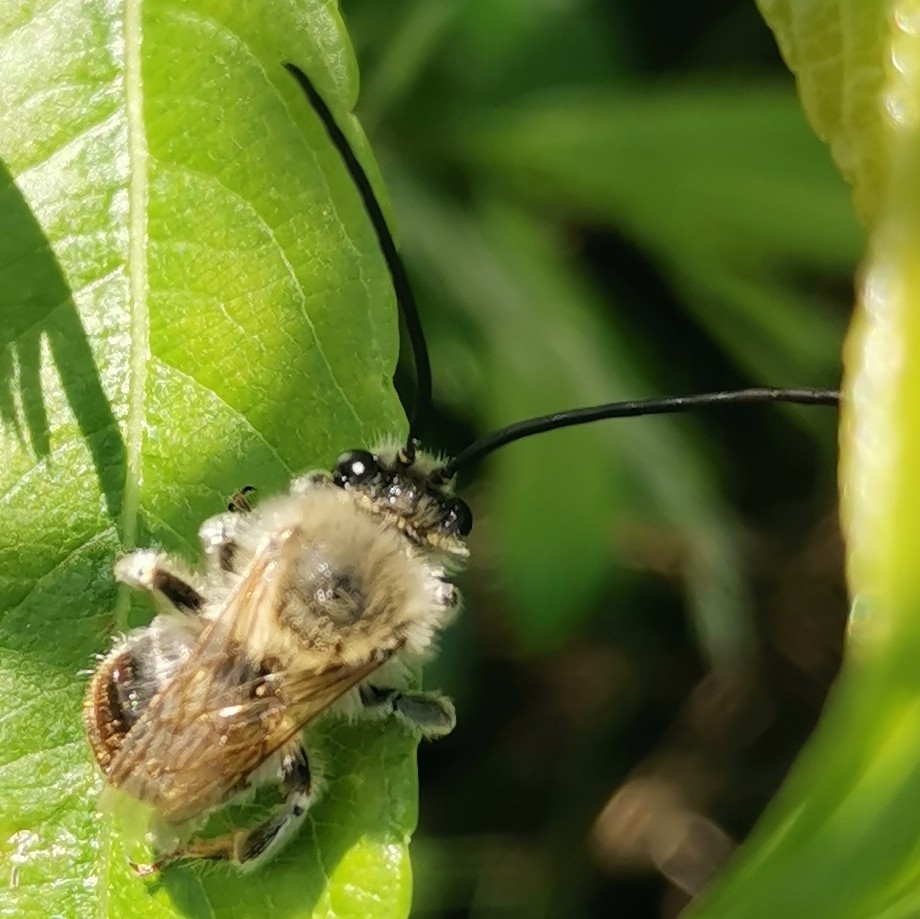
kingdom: Animalia
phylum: Arthropoda
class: Insecta
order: Hymenoptera
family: Apidae
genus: Eucera
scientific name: Eucera longicornis
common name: Long-horned bee
